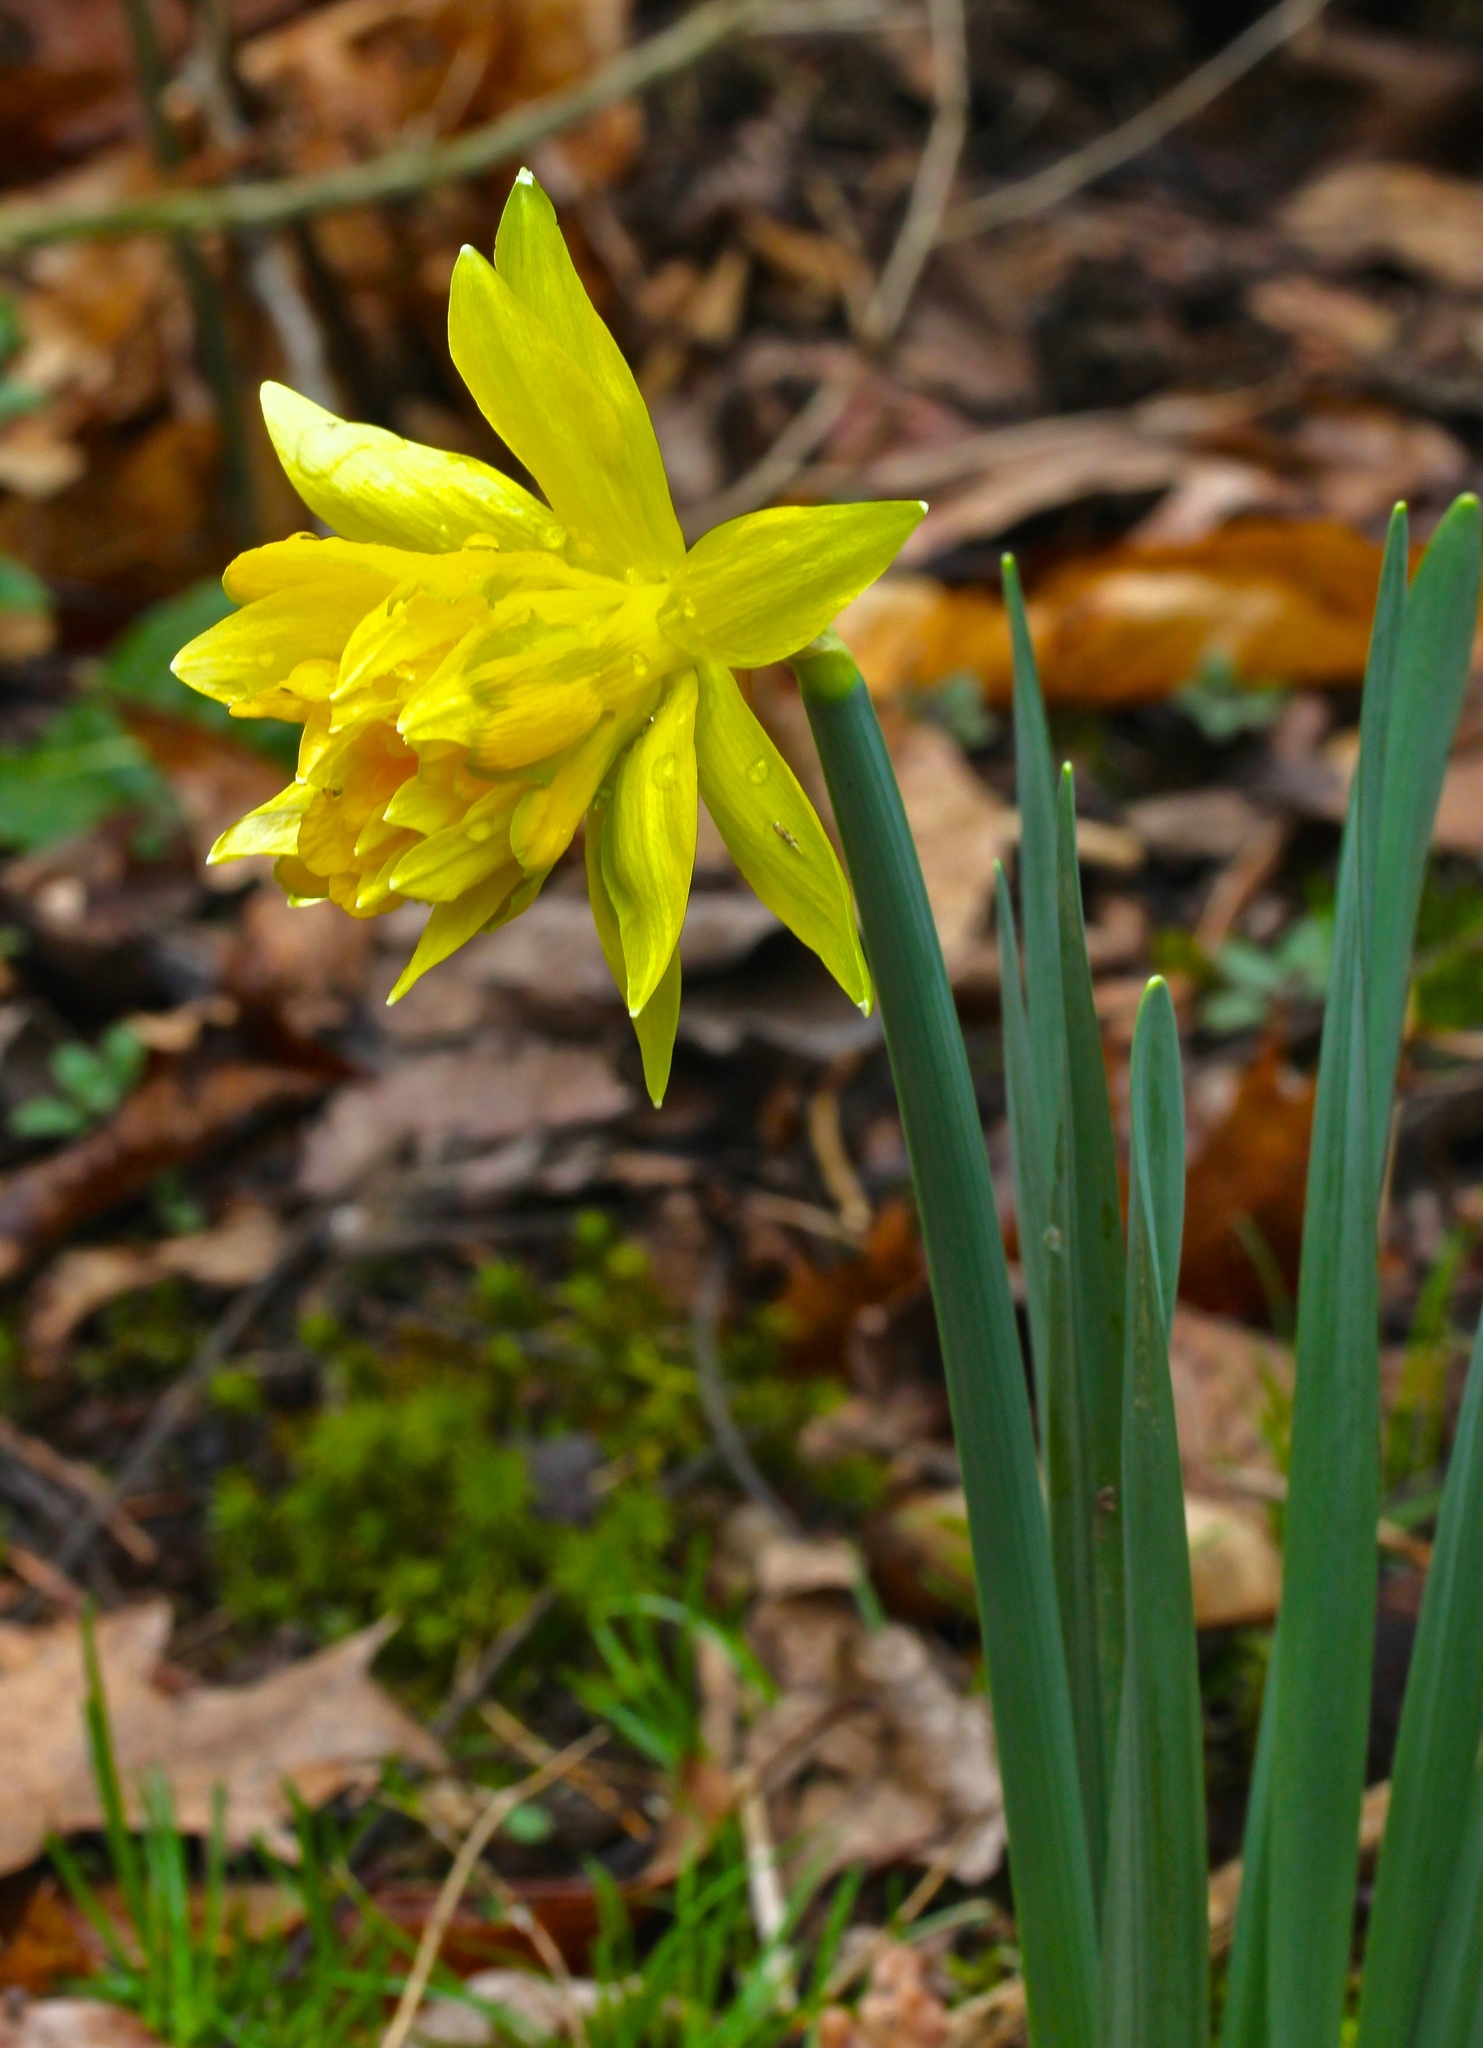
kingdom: Plantae
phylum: Tracheophyta
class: Liliopsida
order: Asparagales
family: Amaryllidaceae
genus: Narcissus
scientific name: Narcissus
